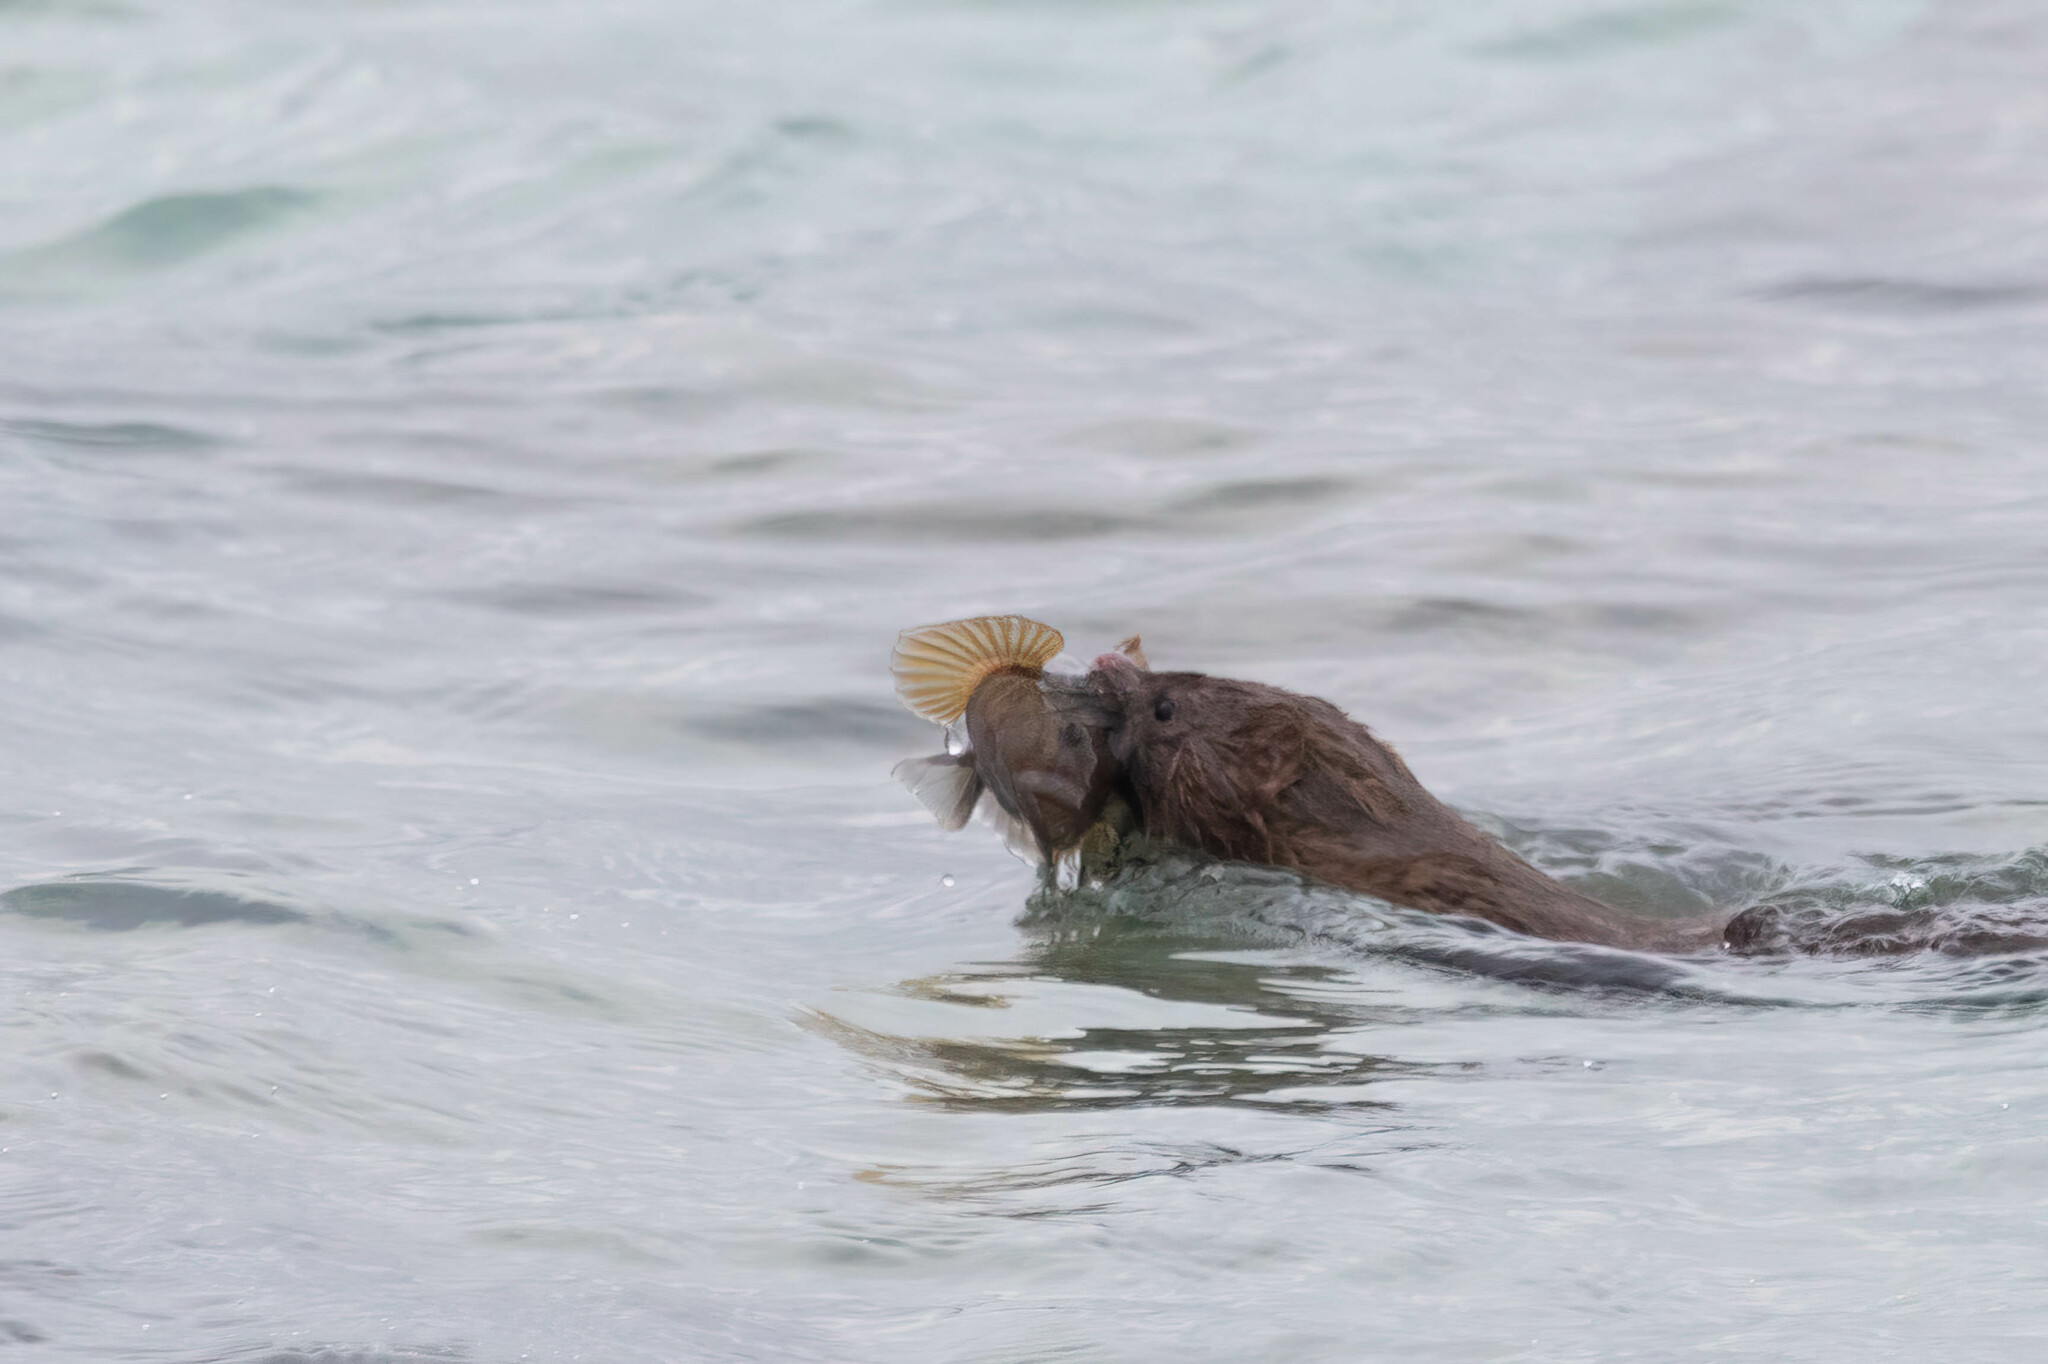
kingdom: Animalia
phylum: Chordata
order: Perciformes
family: Gobiidae
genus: Neogobius
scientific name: Neogobius melanostomus
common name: Round goby
